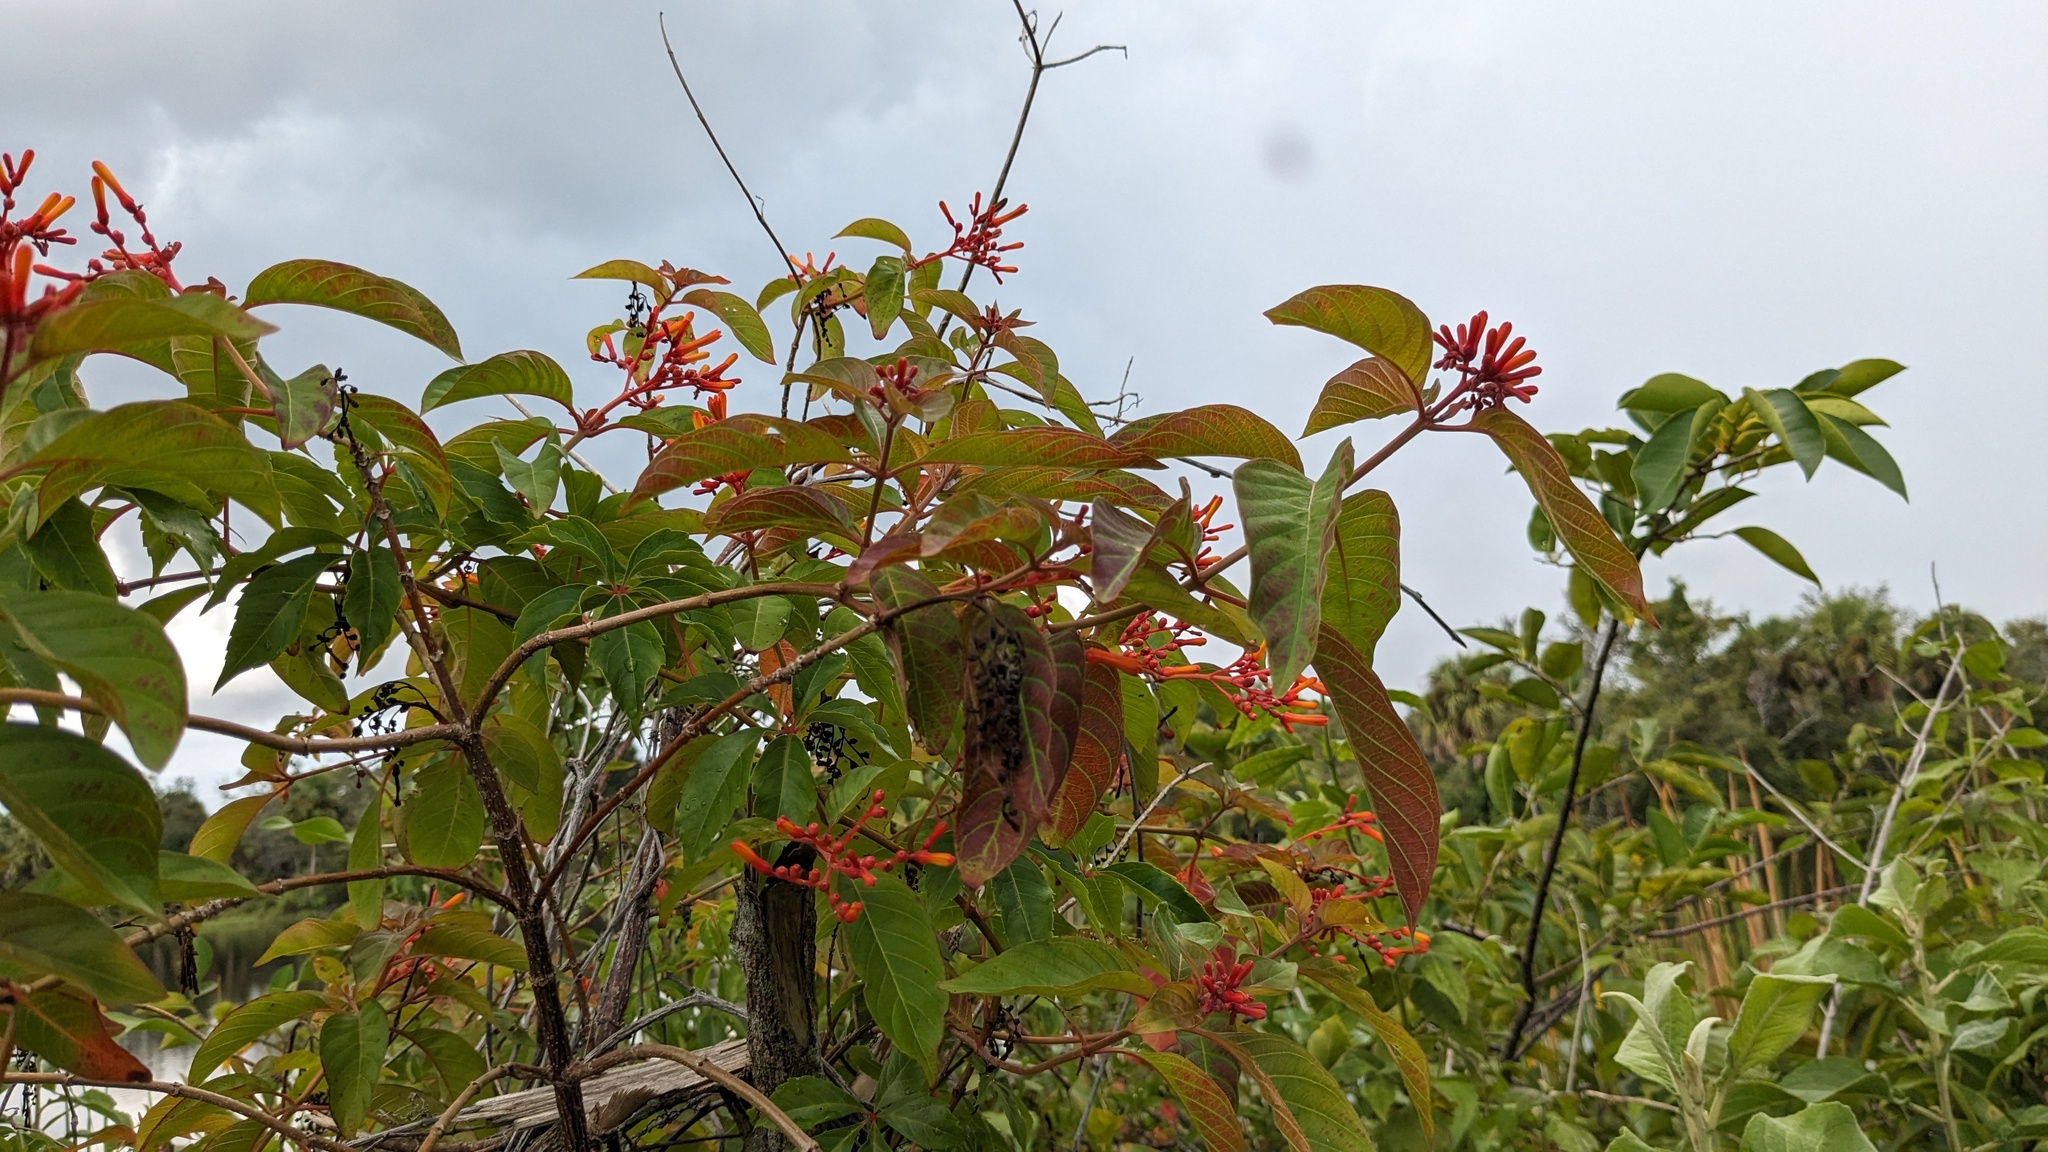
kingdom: Plantae
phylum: Tracheophyta
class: Magnoliopsida
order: Gentianales
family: Rubiaceae
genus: Hamelia
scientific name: Hamelia patens
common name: Redhead
